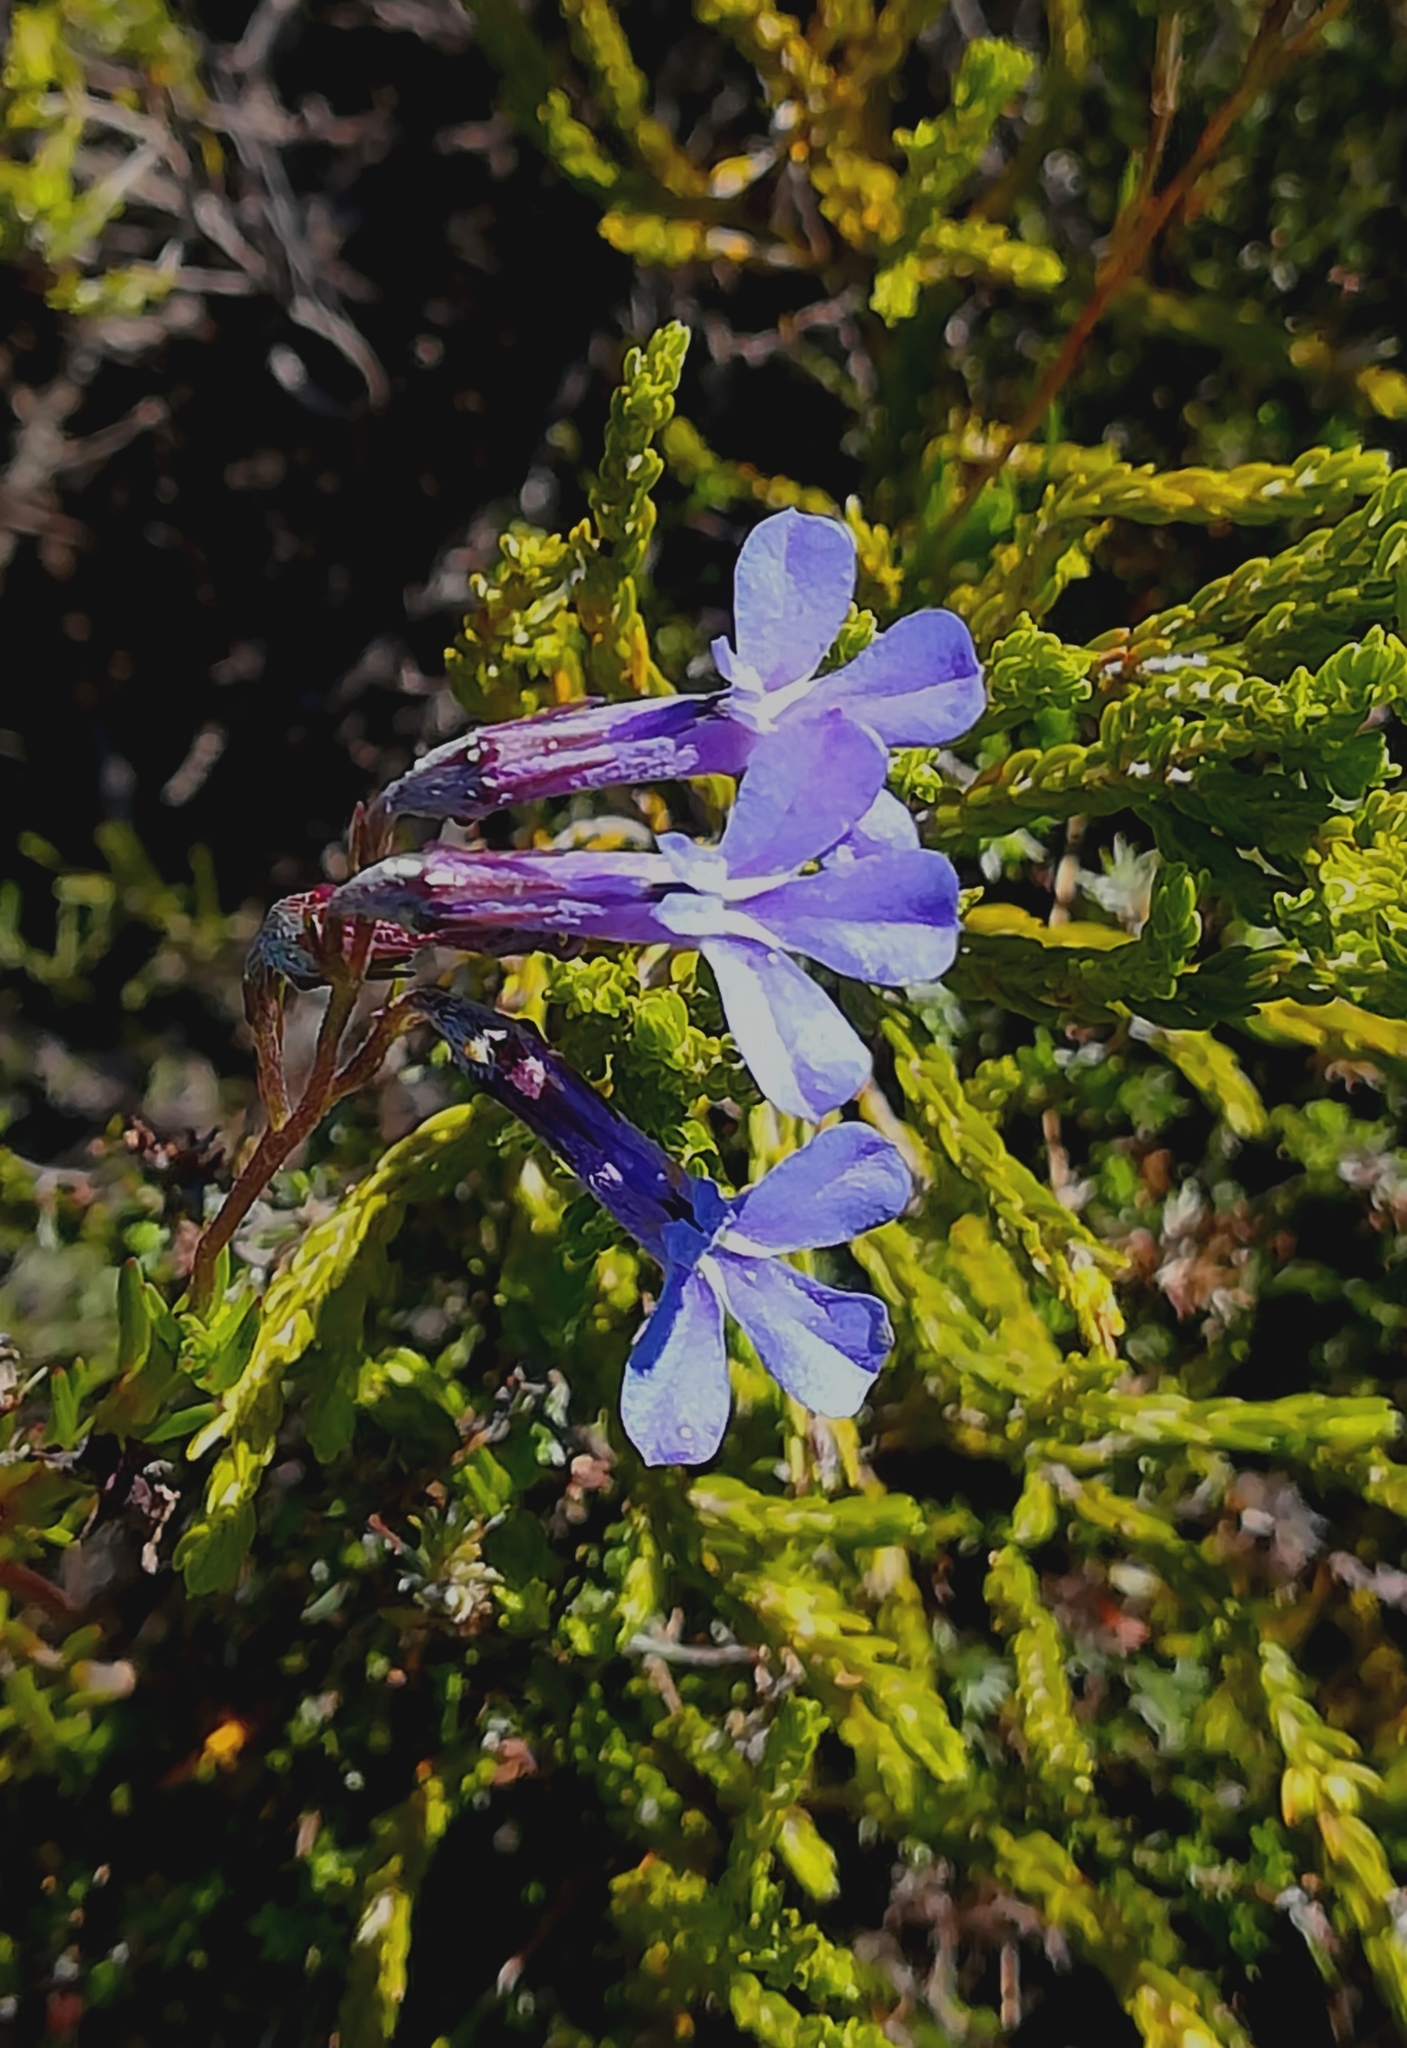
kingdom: Plantae
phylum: Tracheophyta
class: Magnoliopsida
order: Asterales
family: Campanulaceae
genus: Lobelia
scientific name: Lobelia pinifolia
